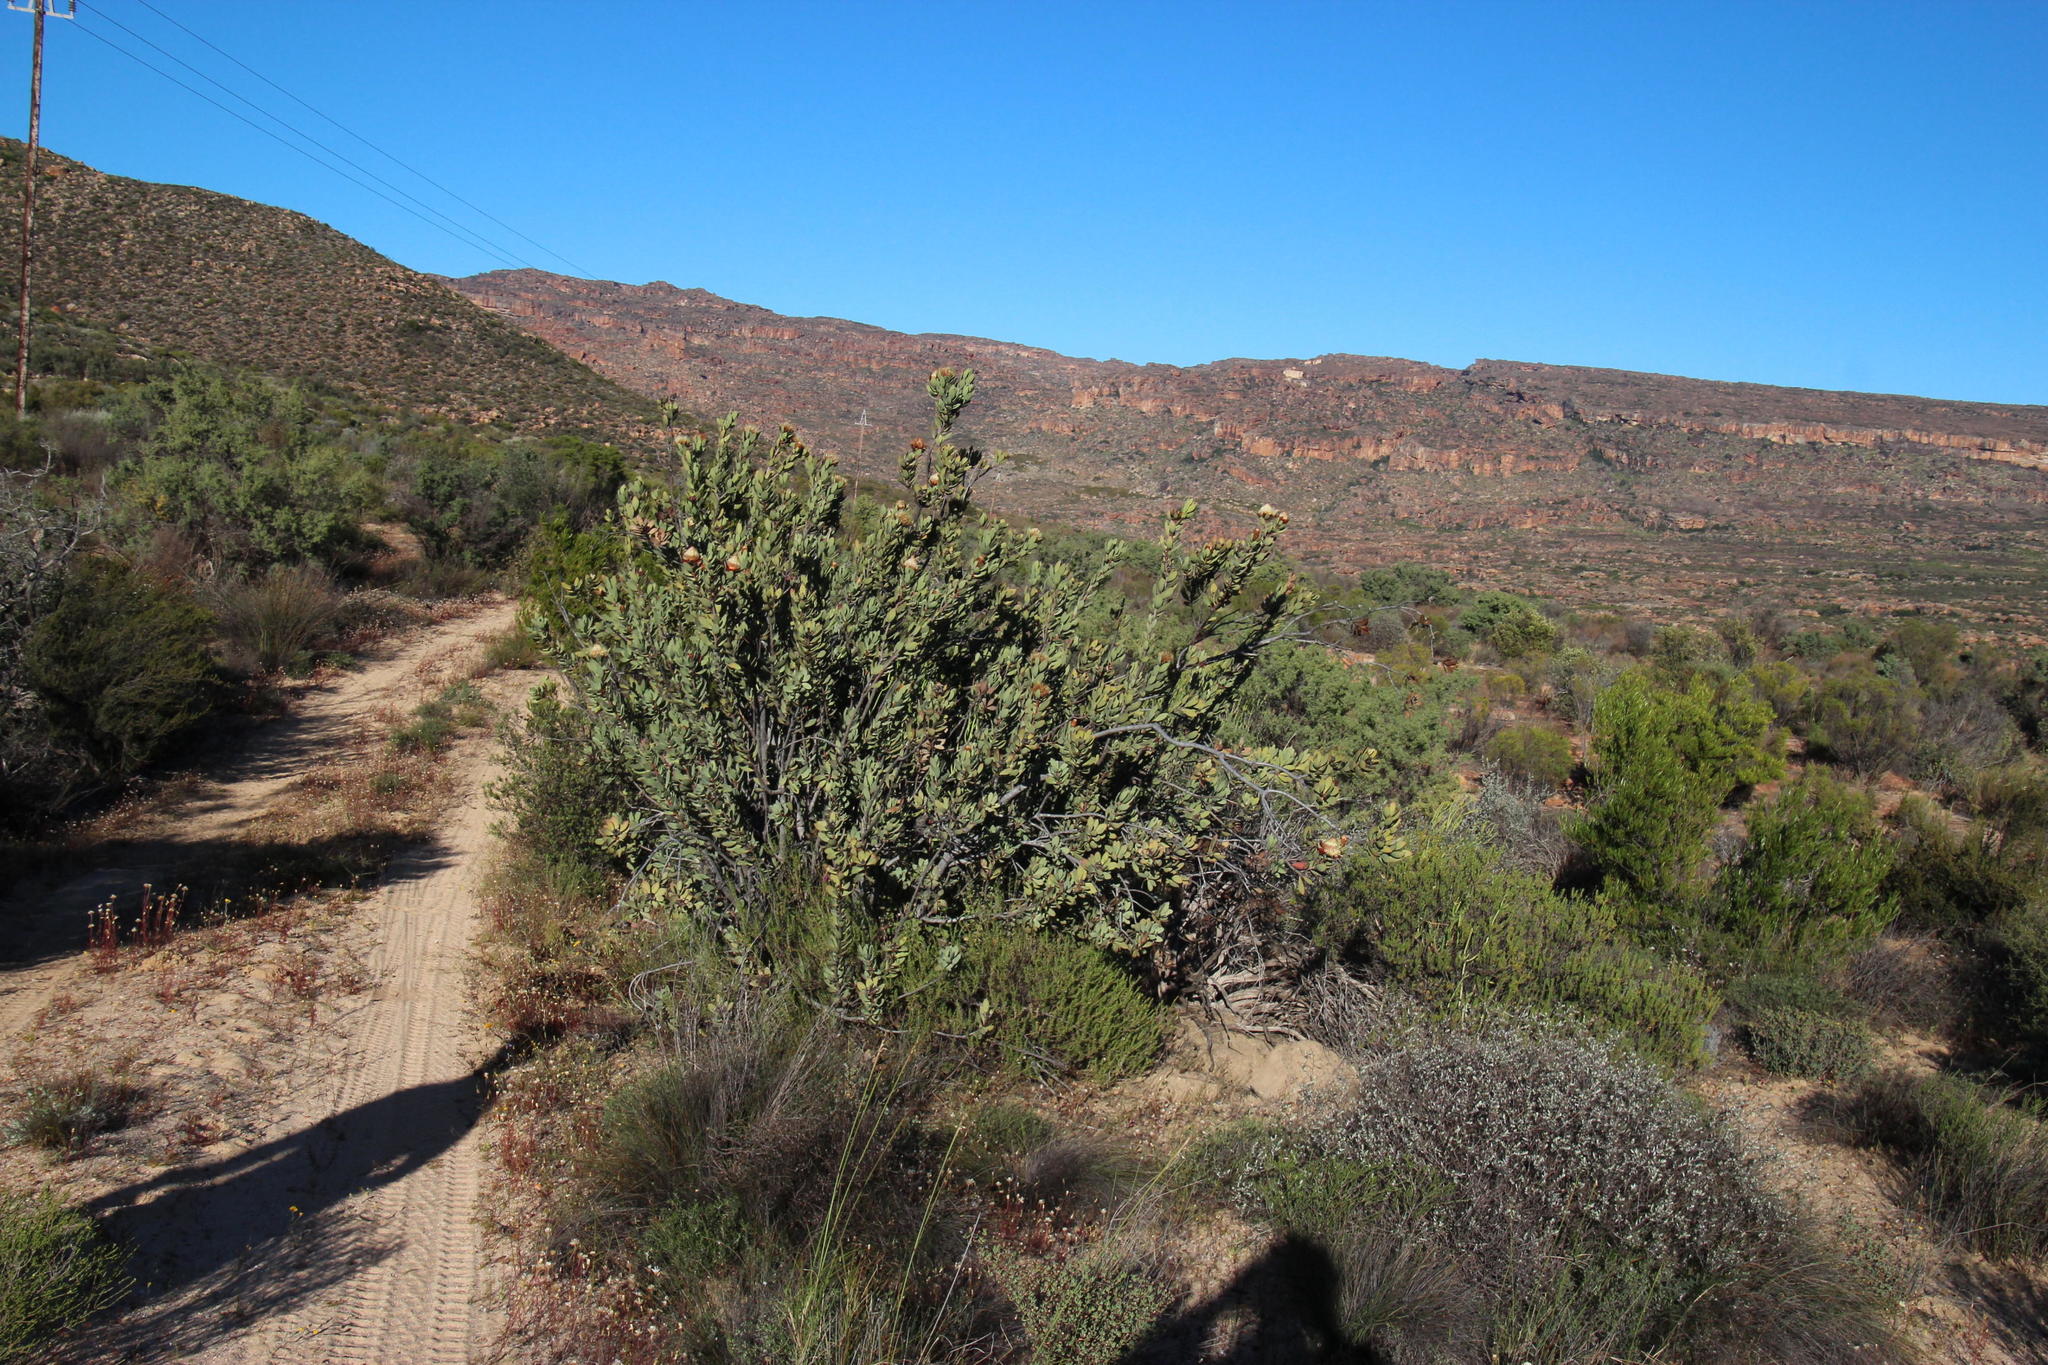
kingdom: Plantae
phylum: Tracheophyta
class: Magnoliopsida
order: Proteales
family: Proteaceae
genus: Protea
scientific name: Protea glabra
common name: Chestnut sugarbush
